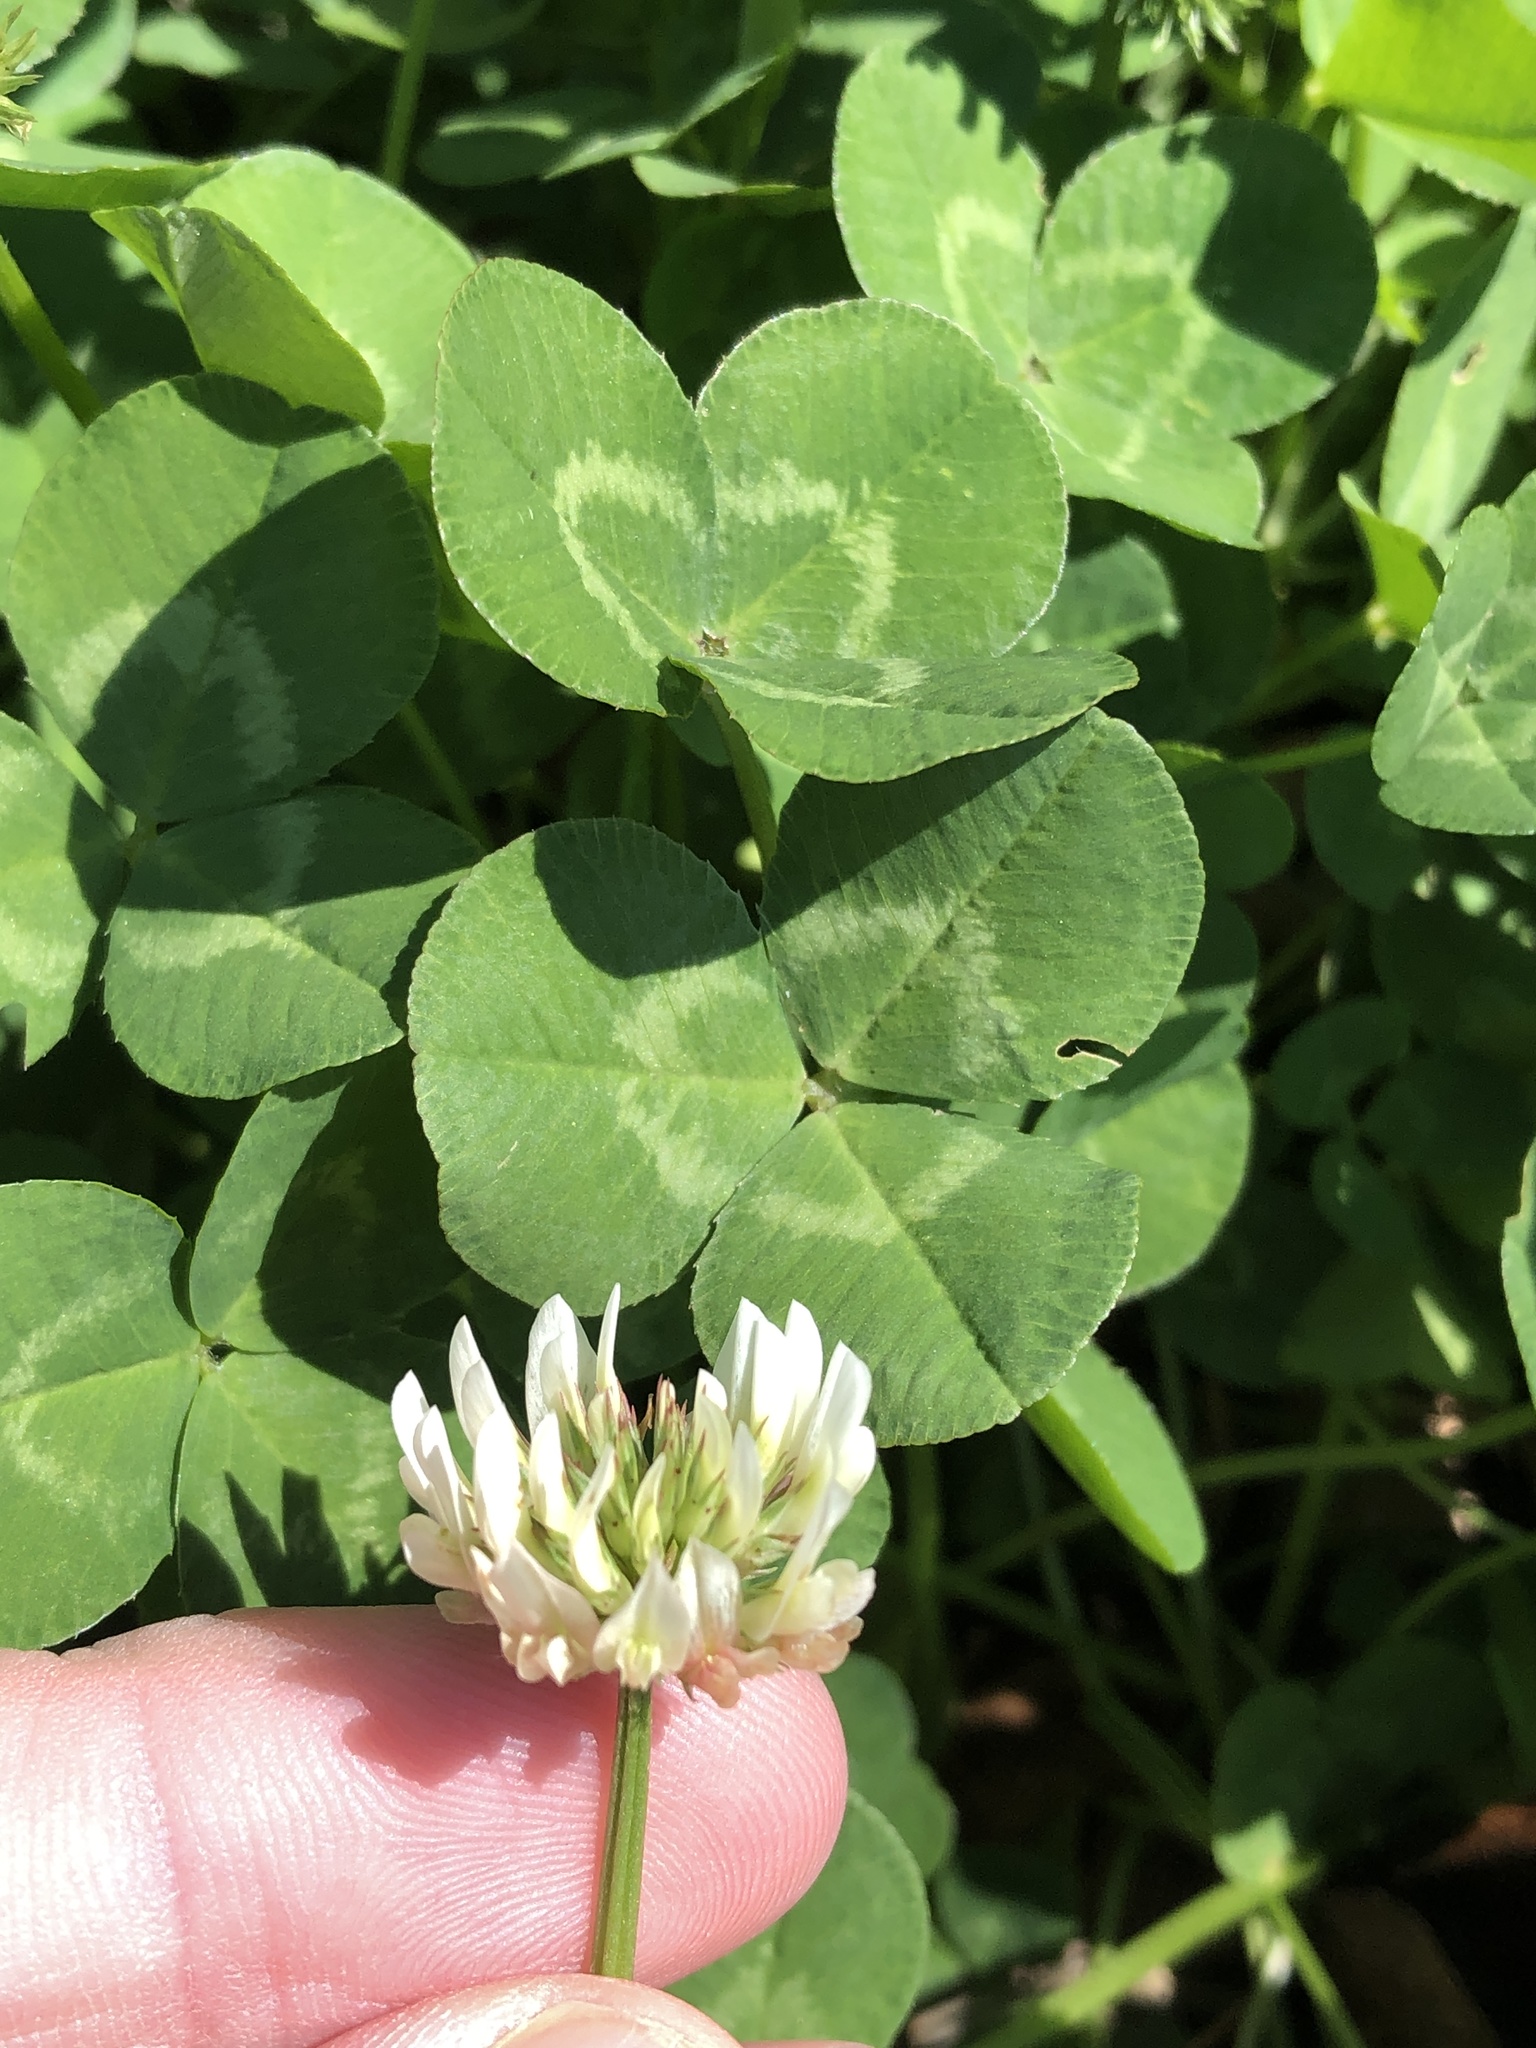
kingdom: Plantae
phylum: Tracheophyta
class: Magnoliopsida
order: Fabales
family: Fabaceae
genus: Trifolium
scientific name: Trifolium repens
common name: White clover
